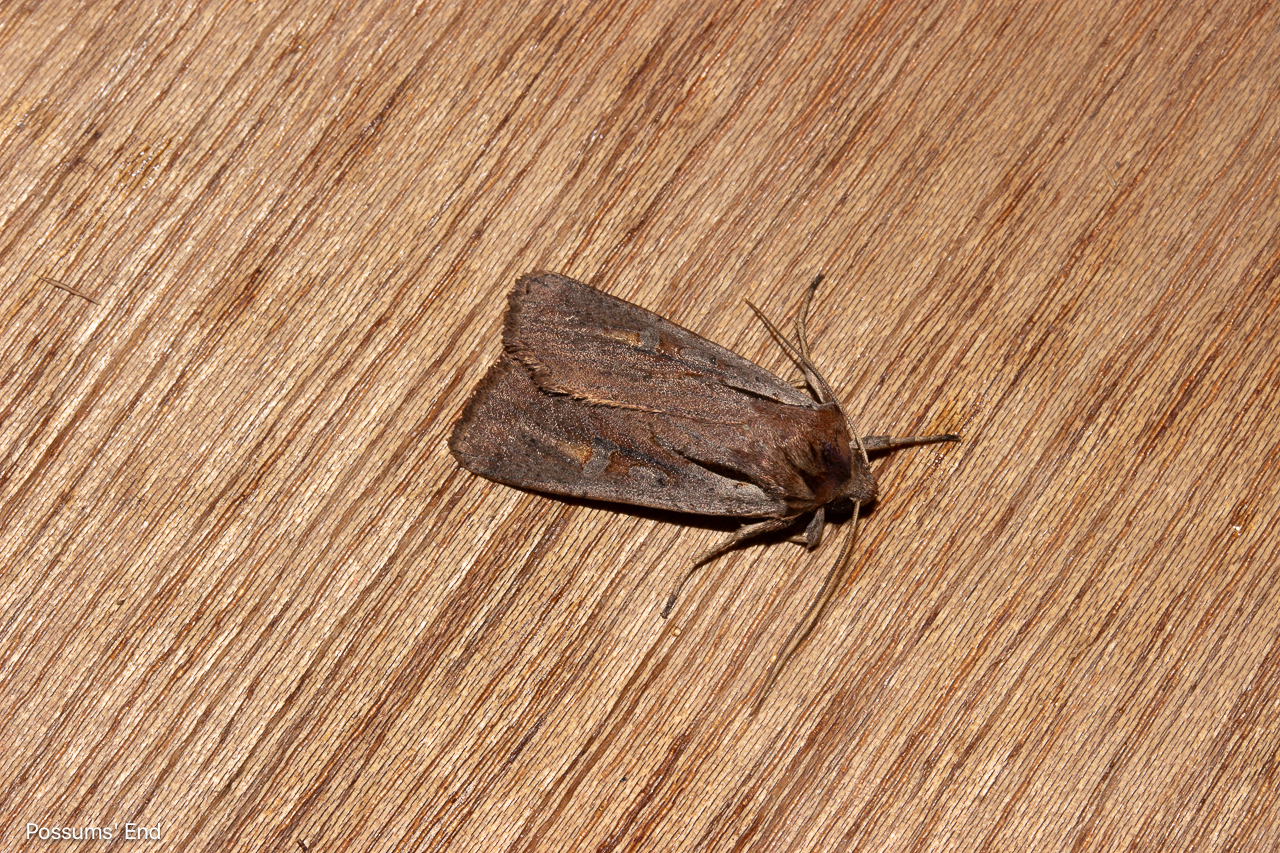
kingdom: Animalia
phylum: Arthropoda
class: Insecta
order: Lepidoptera
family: Noctuidae
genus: Ichneutica
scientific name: Ichneutica atristriga
